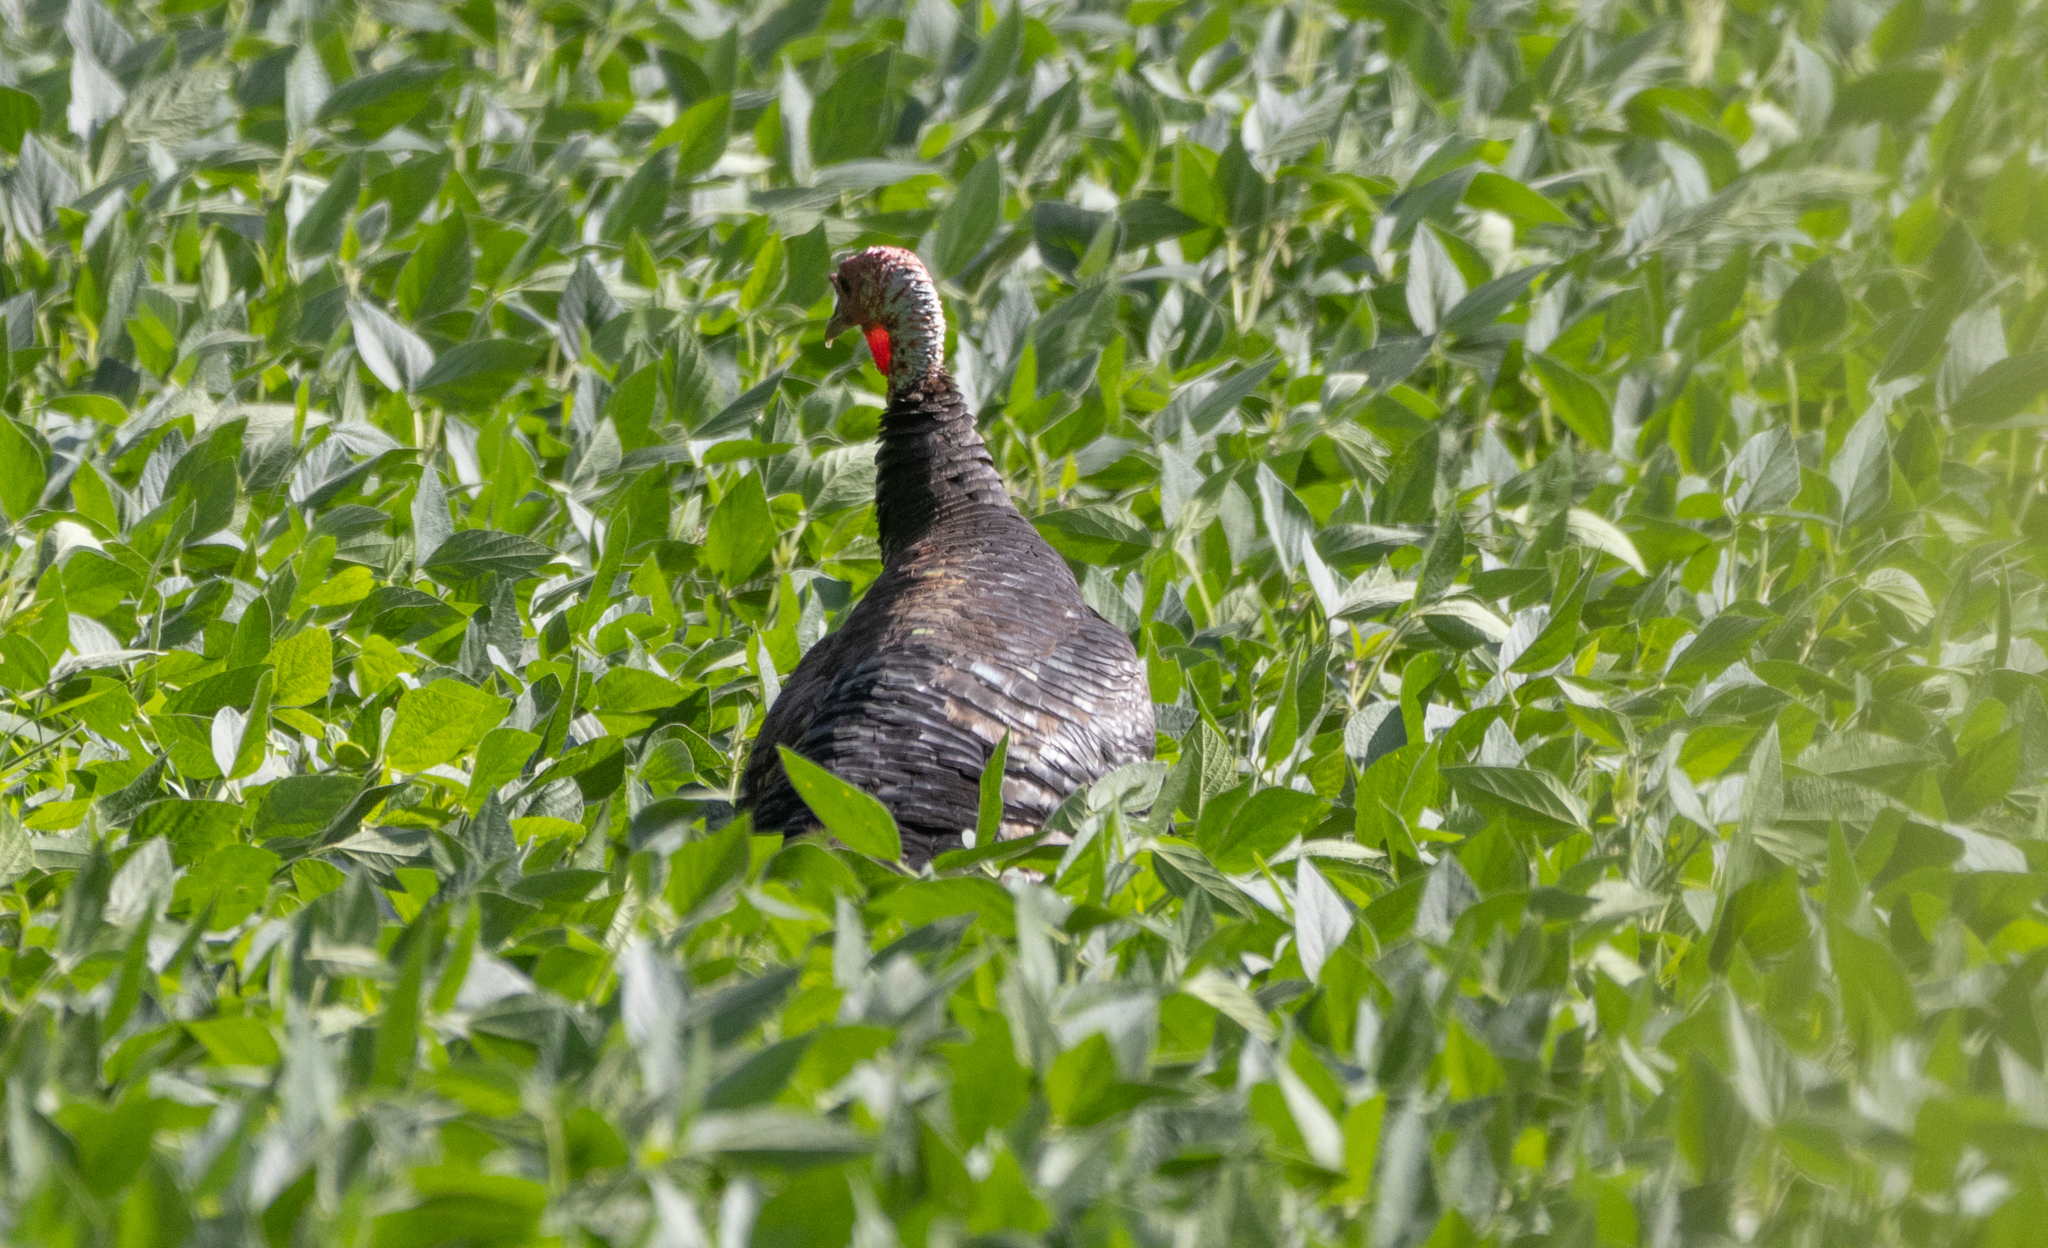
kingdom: Animalia
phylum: Chordata
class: Aves
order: Galliformes
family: Phasianidae
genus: Meleagris
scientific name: Meleagris gallopavo
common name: Wild turkey
